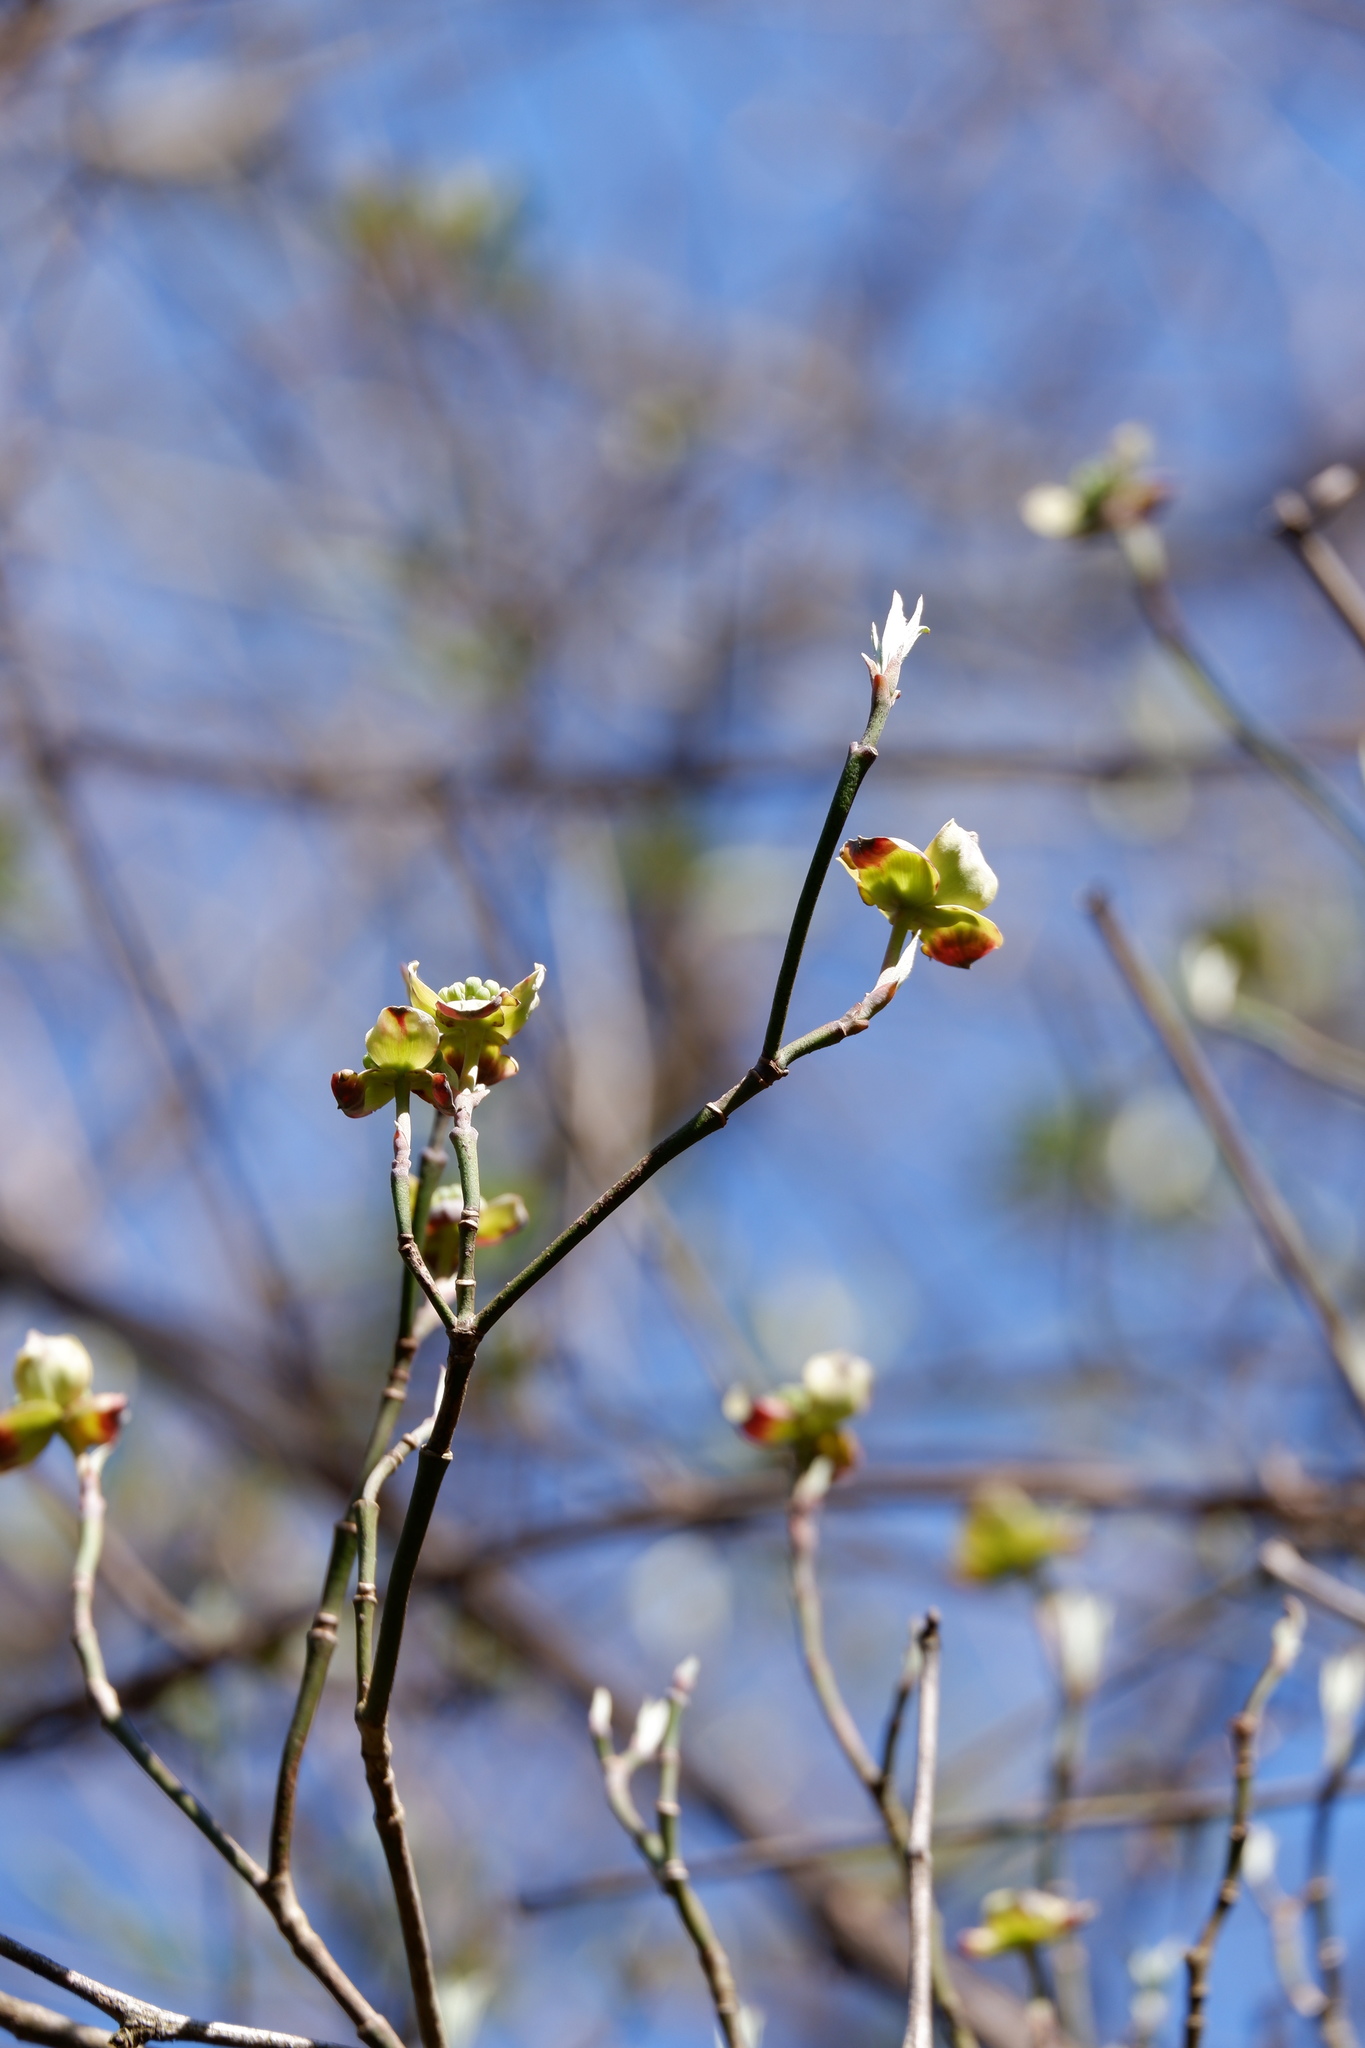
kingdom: Plantae
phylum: Tracheophyta
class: Magnoliopsida
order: Cornales
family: Cornaceae
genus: Cornus
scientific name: Cornus florida
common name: Flowering dogwood
